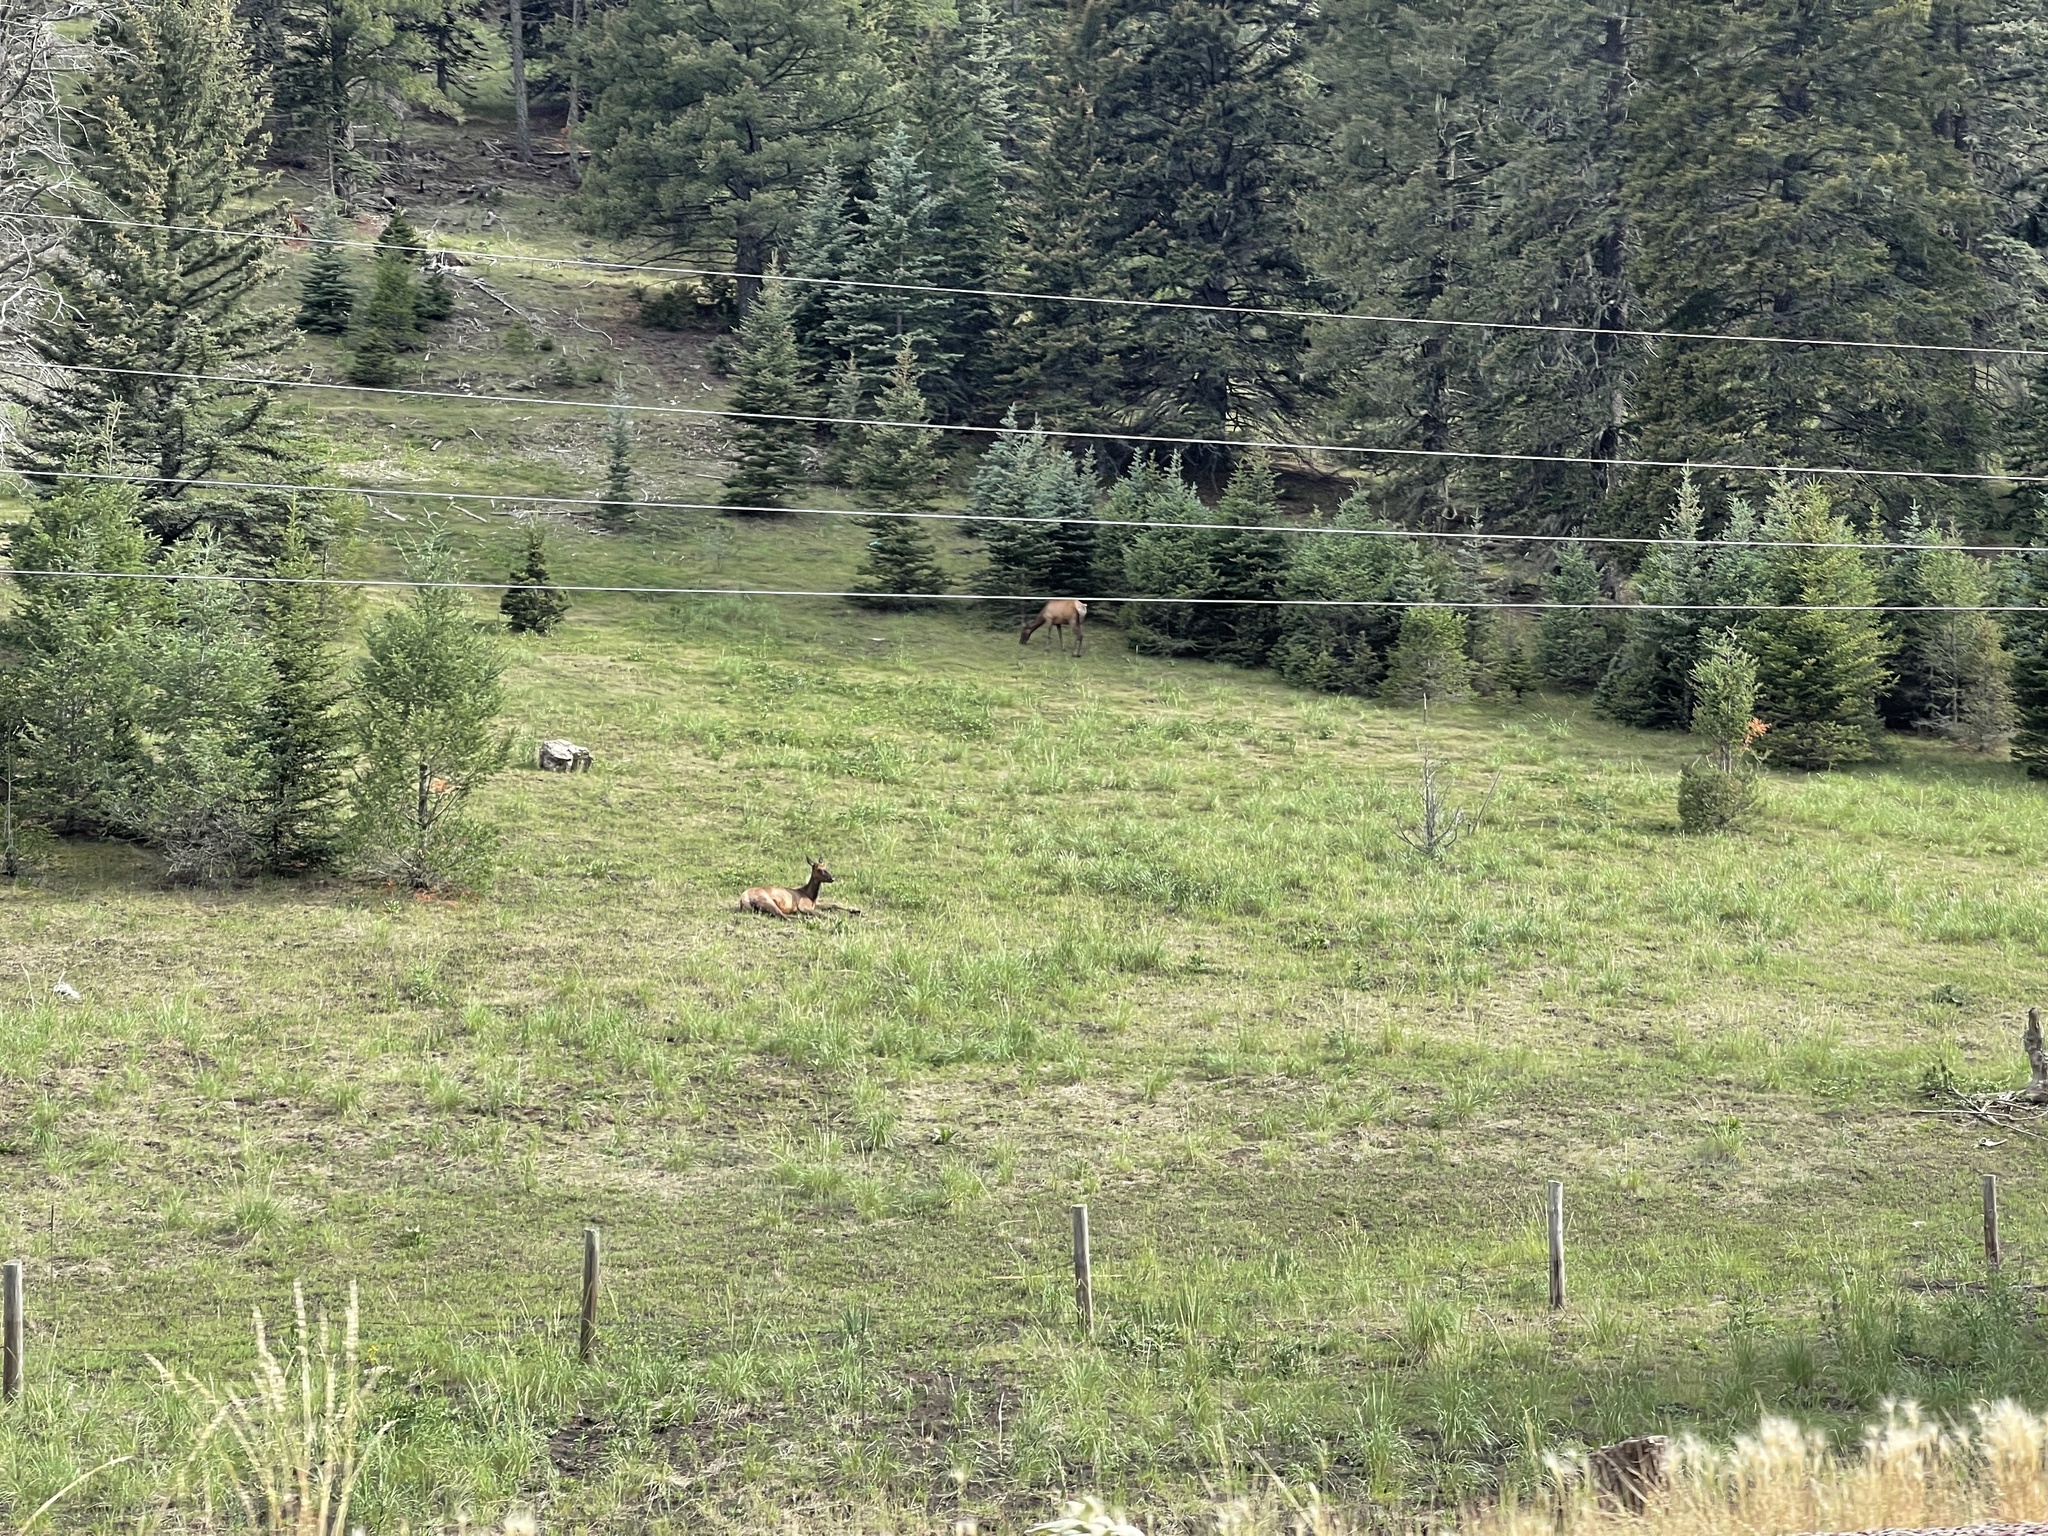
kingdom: Animalia
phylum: Chordata
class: Mammalia
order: Artiodactyla
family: Cervidae
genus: Cervus
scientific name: Cervus elaphus
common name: Red deer
